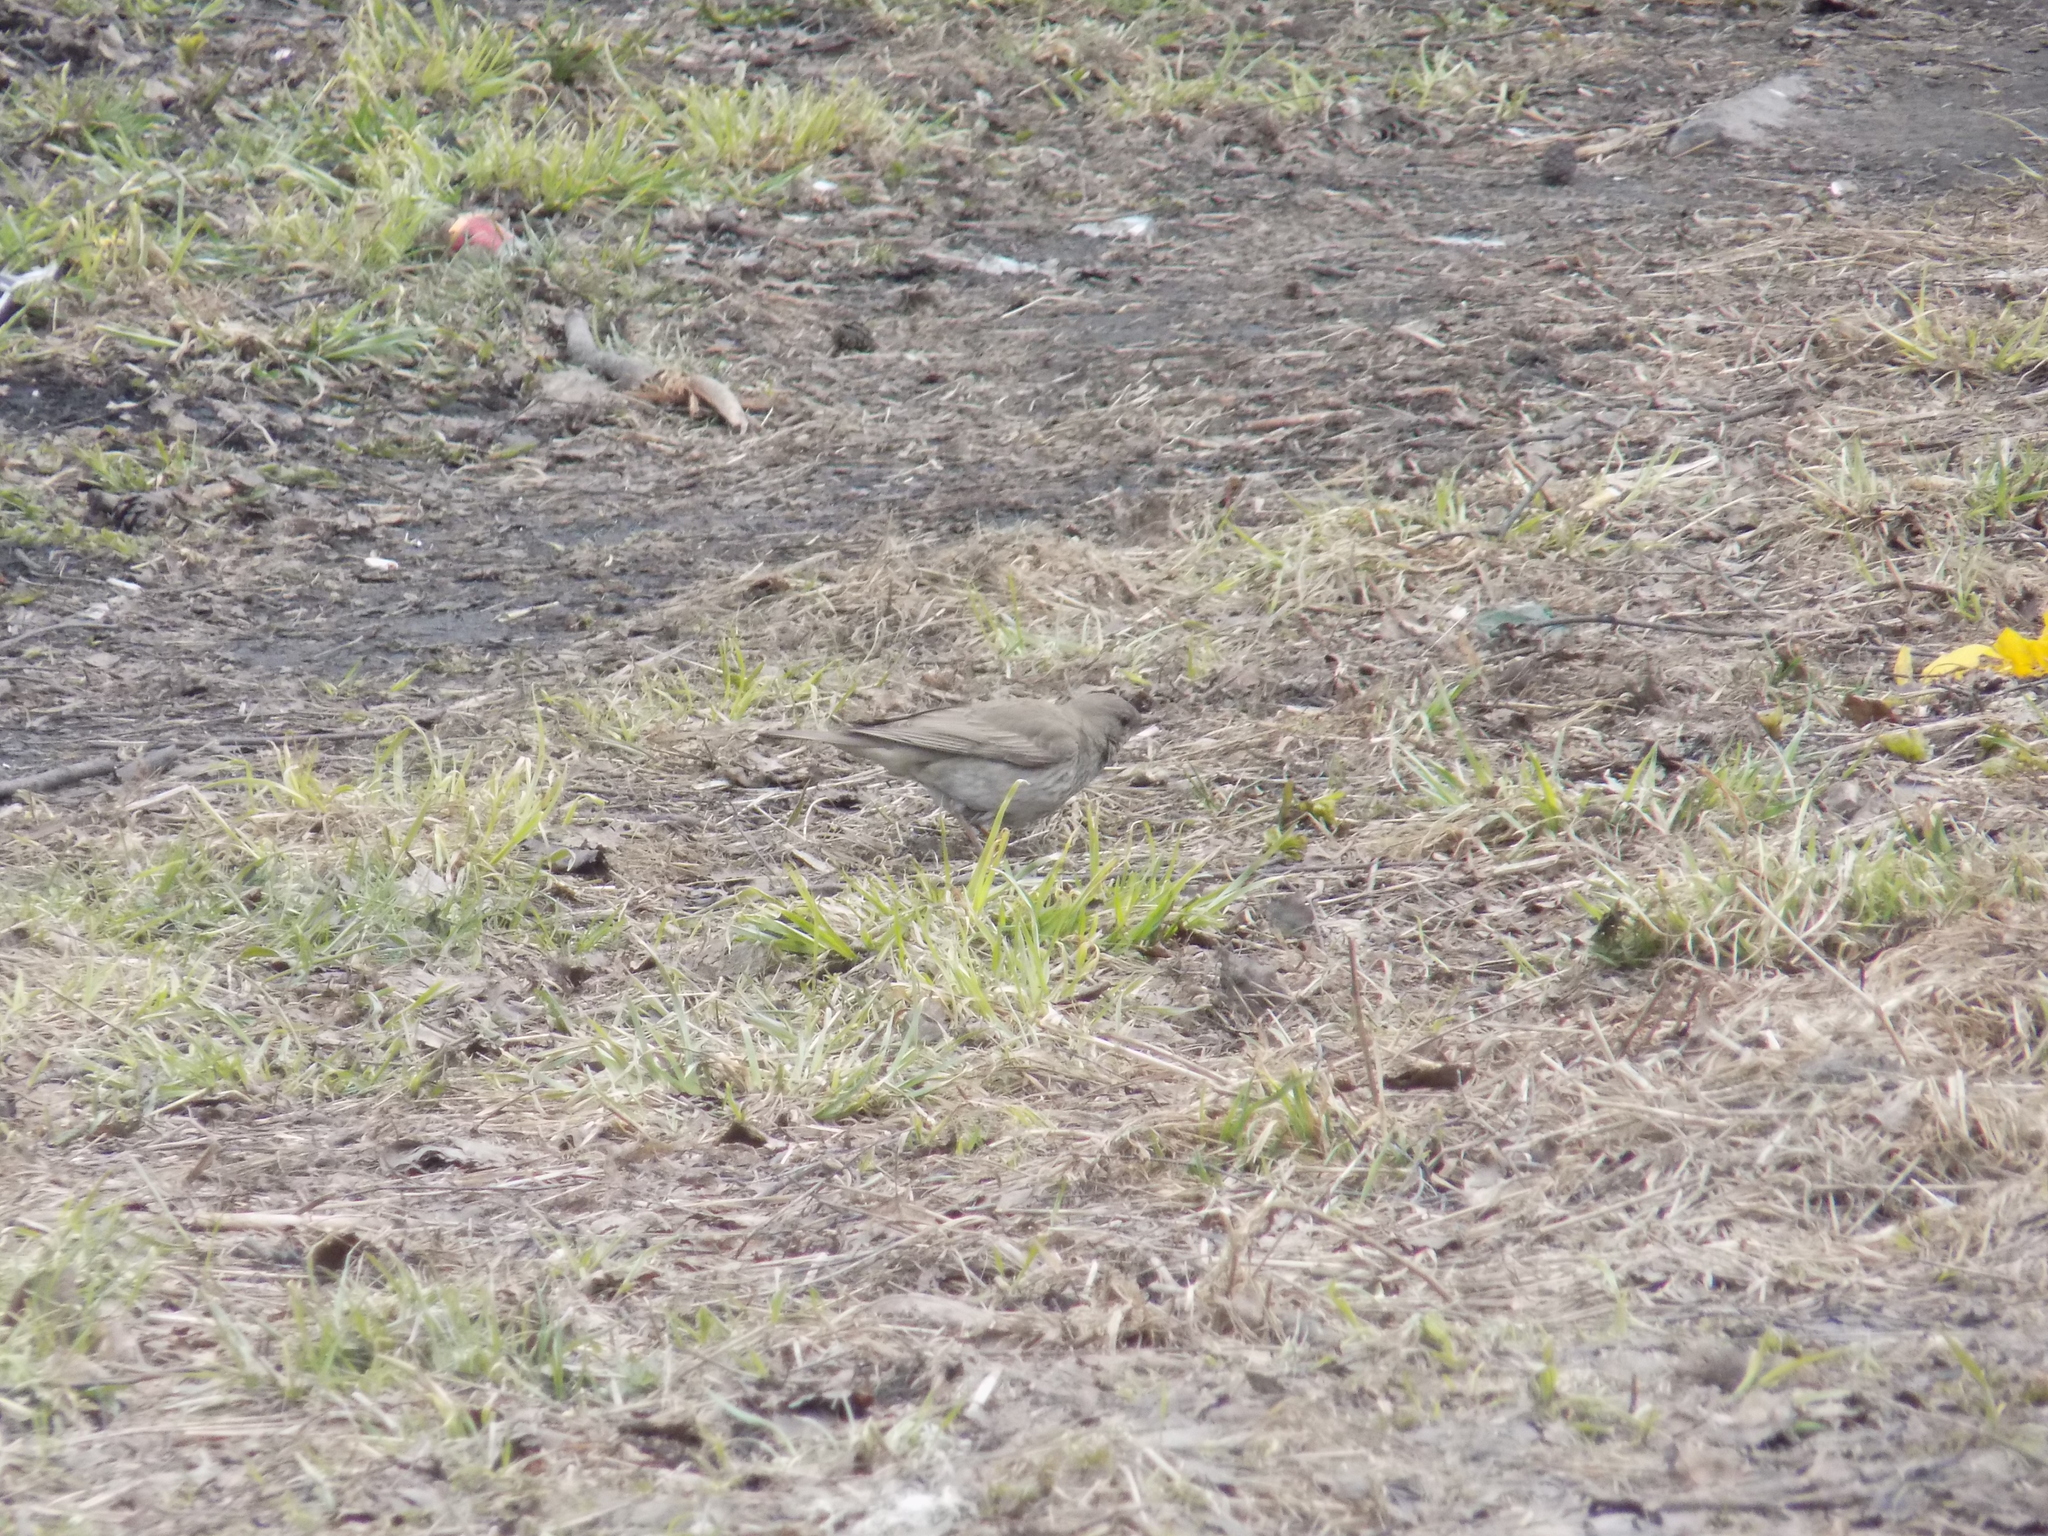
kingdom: Animalia
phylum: Chordata
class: Aves
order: Passeriformes
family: Turdidae
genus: Turdus
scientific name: Turdus atrogularis
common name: Black-throated thrush
